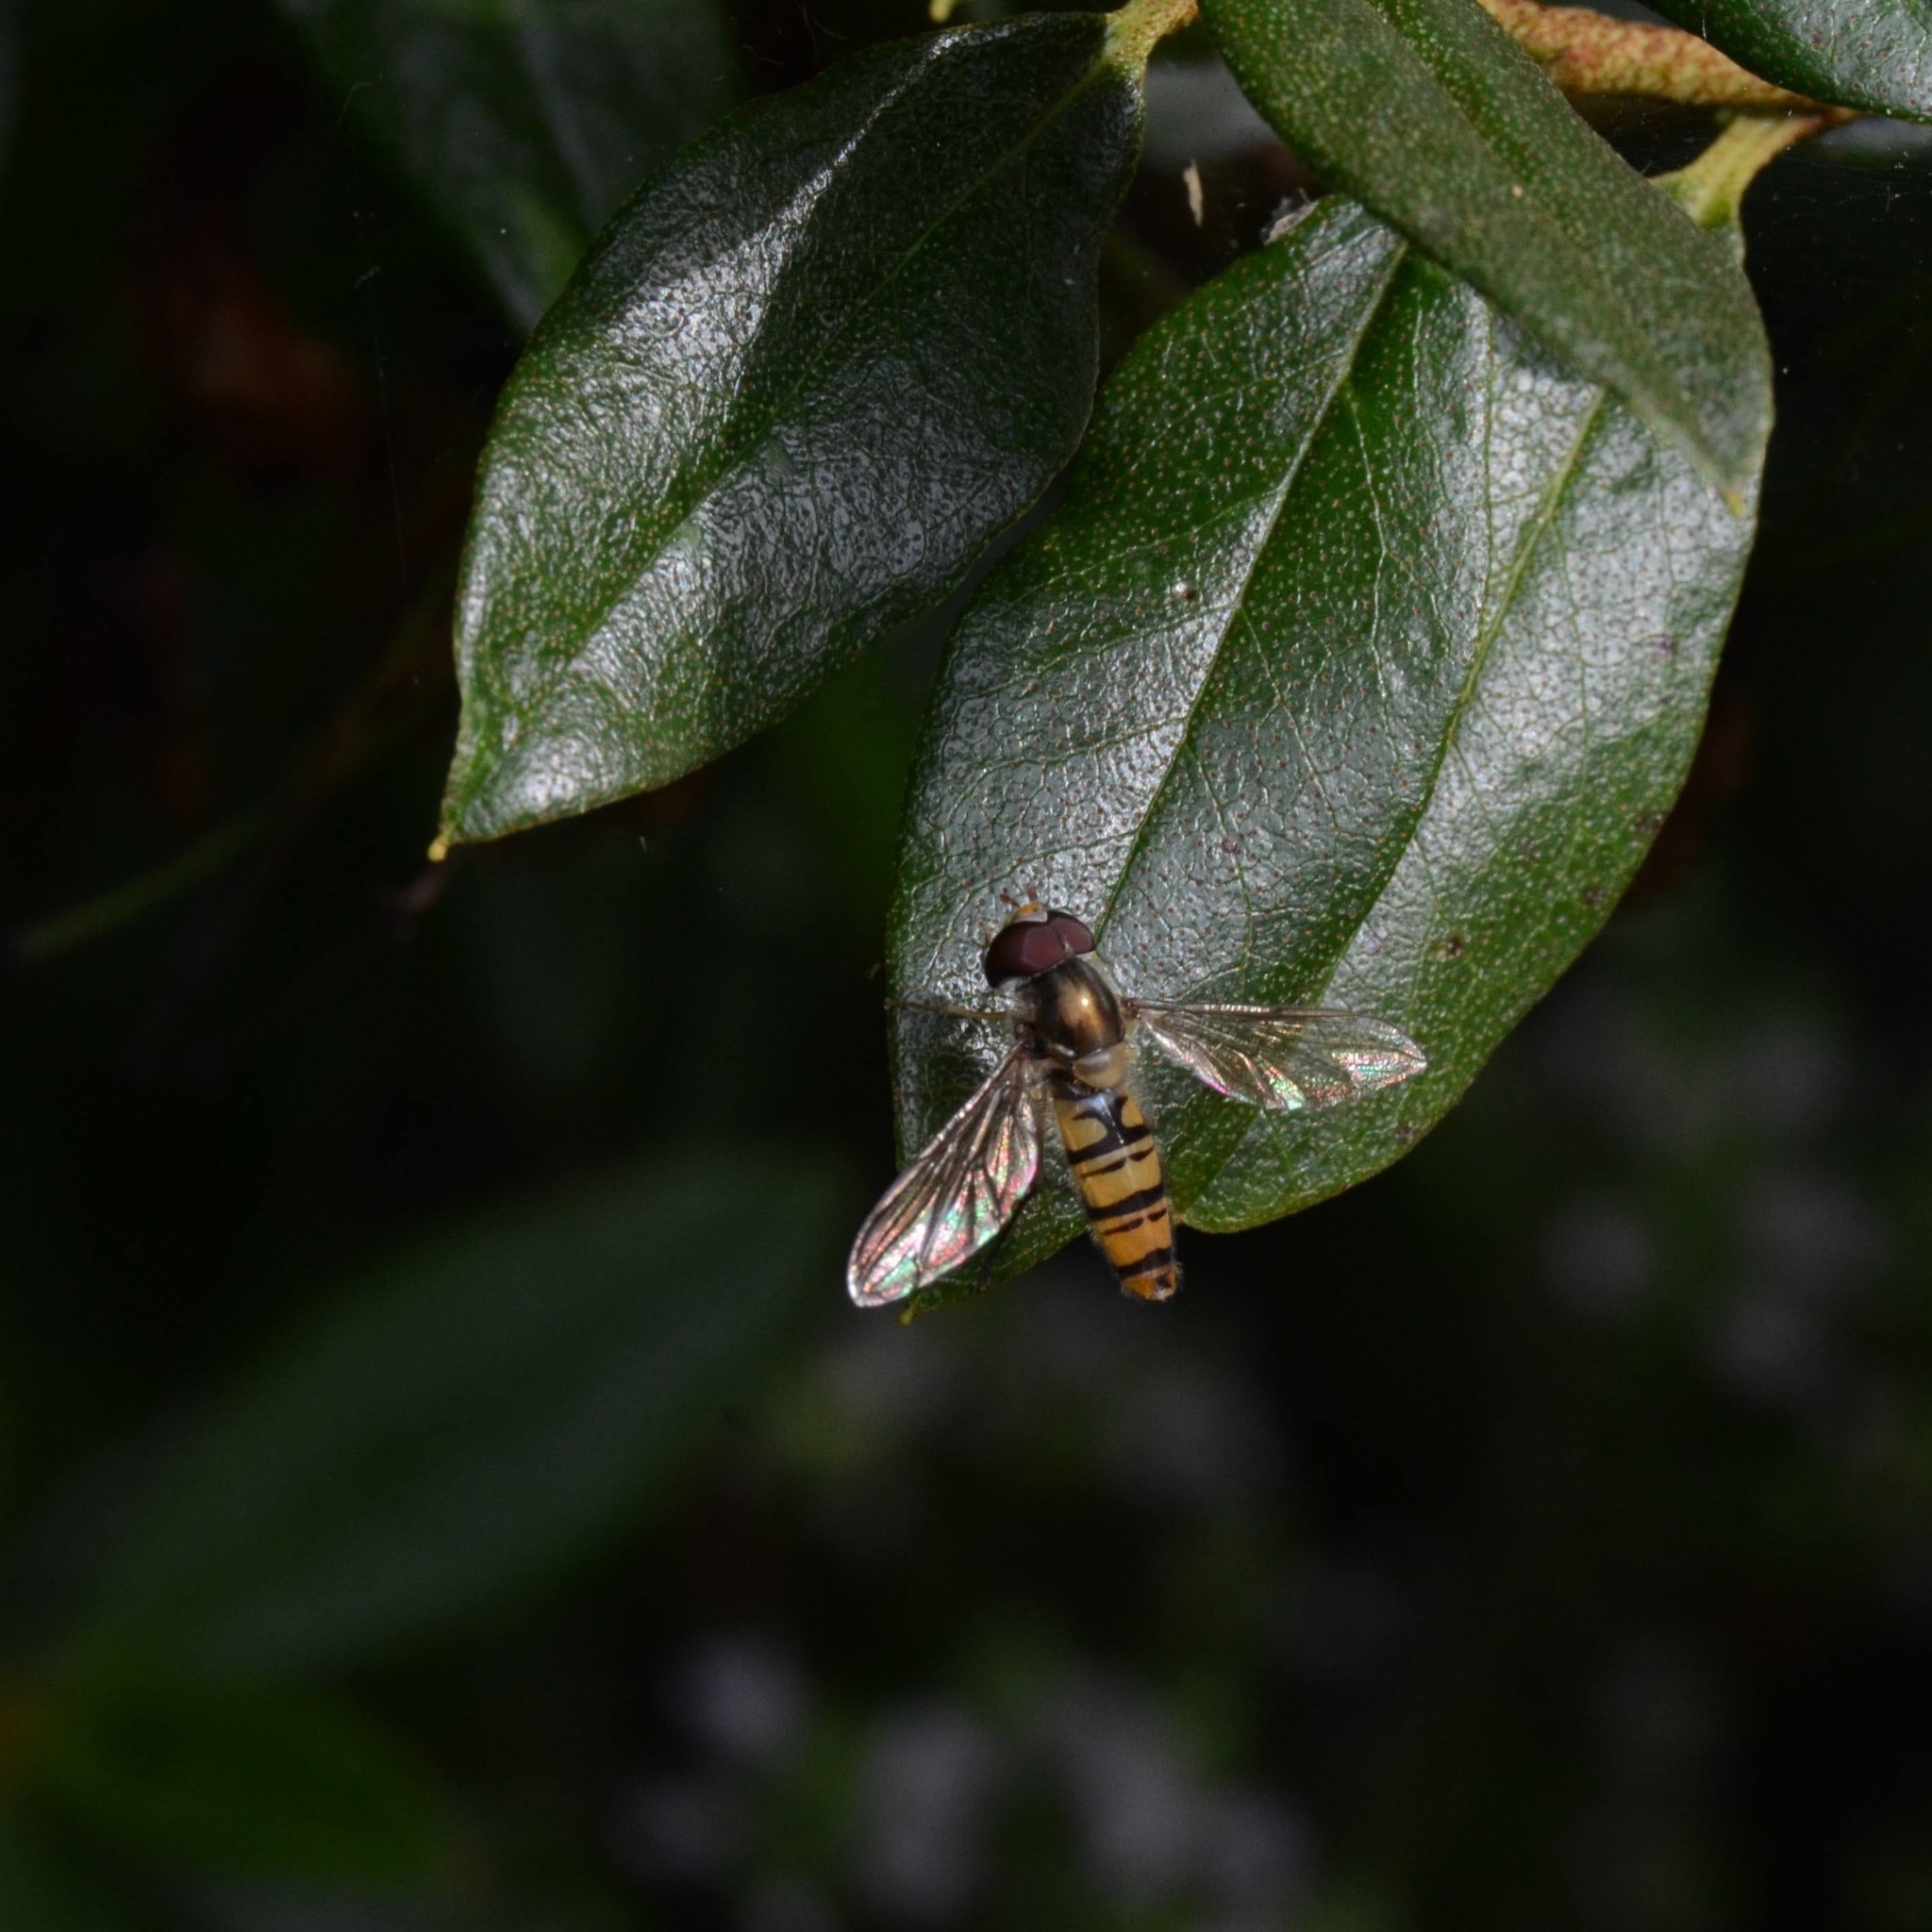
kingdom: Animalia
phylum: Arthropoda
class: Insecta
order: Diptera
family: Syrphidae
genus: Episyrphus
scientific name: Episyrphus balteatus
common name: Marmalade hoverfly
